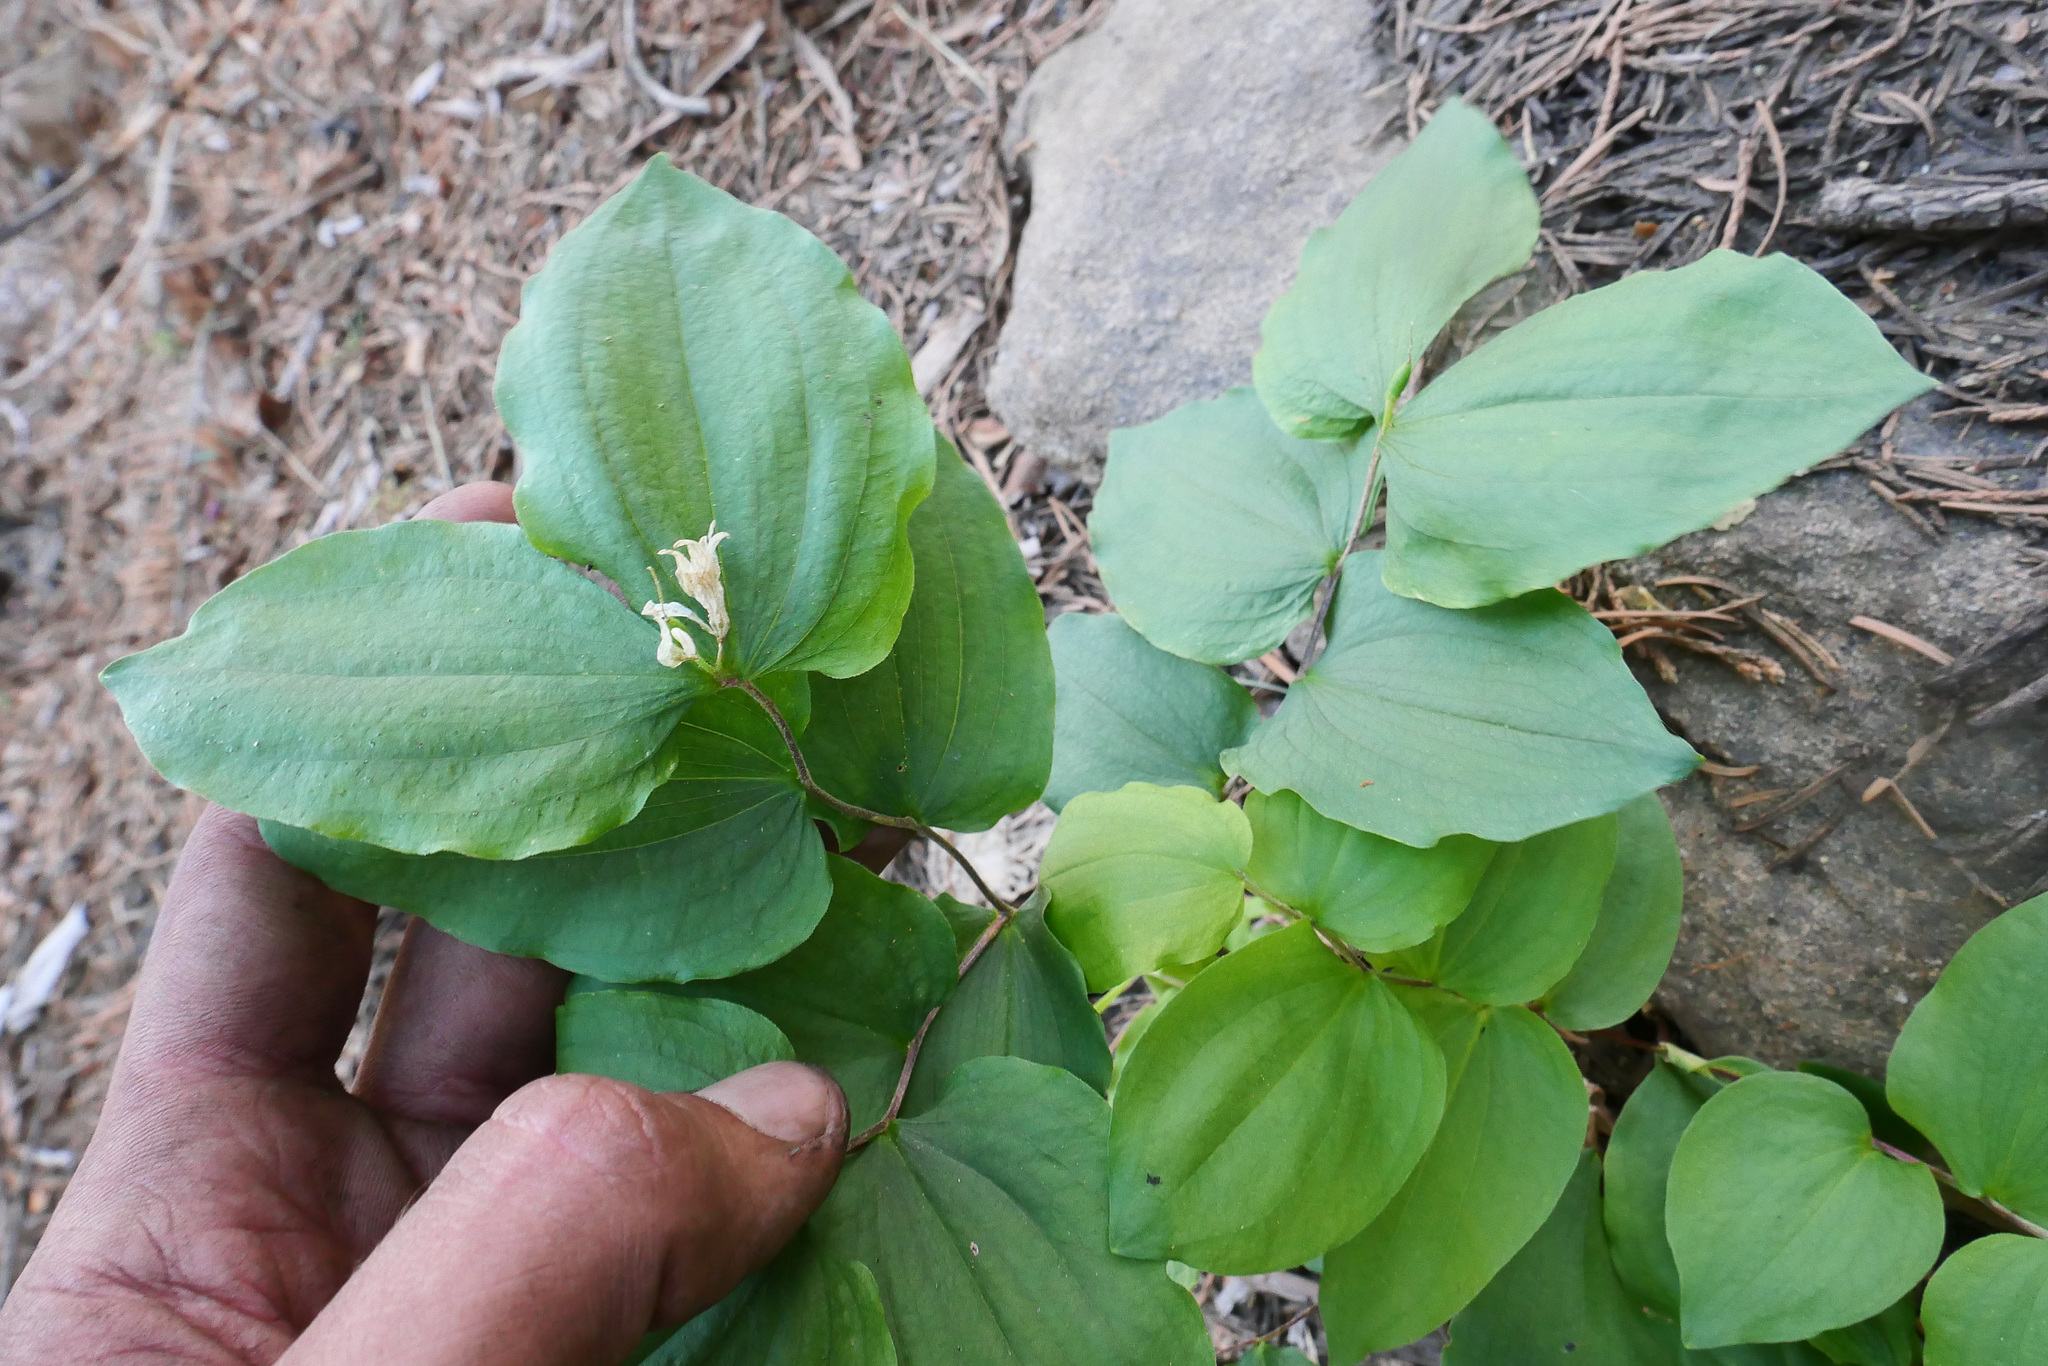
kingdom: Plantae
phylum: Tracheophyta
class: Liliopsida
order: Liliales
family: Liliaceae
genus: Prosartes
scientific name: Prosartes hookeri
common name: Fairy-bells
